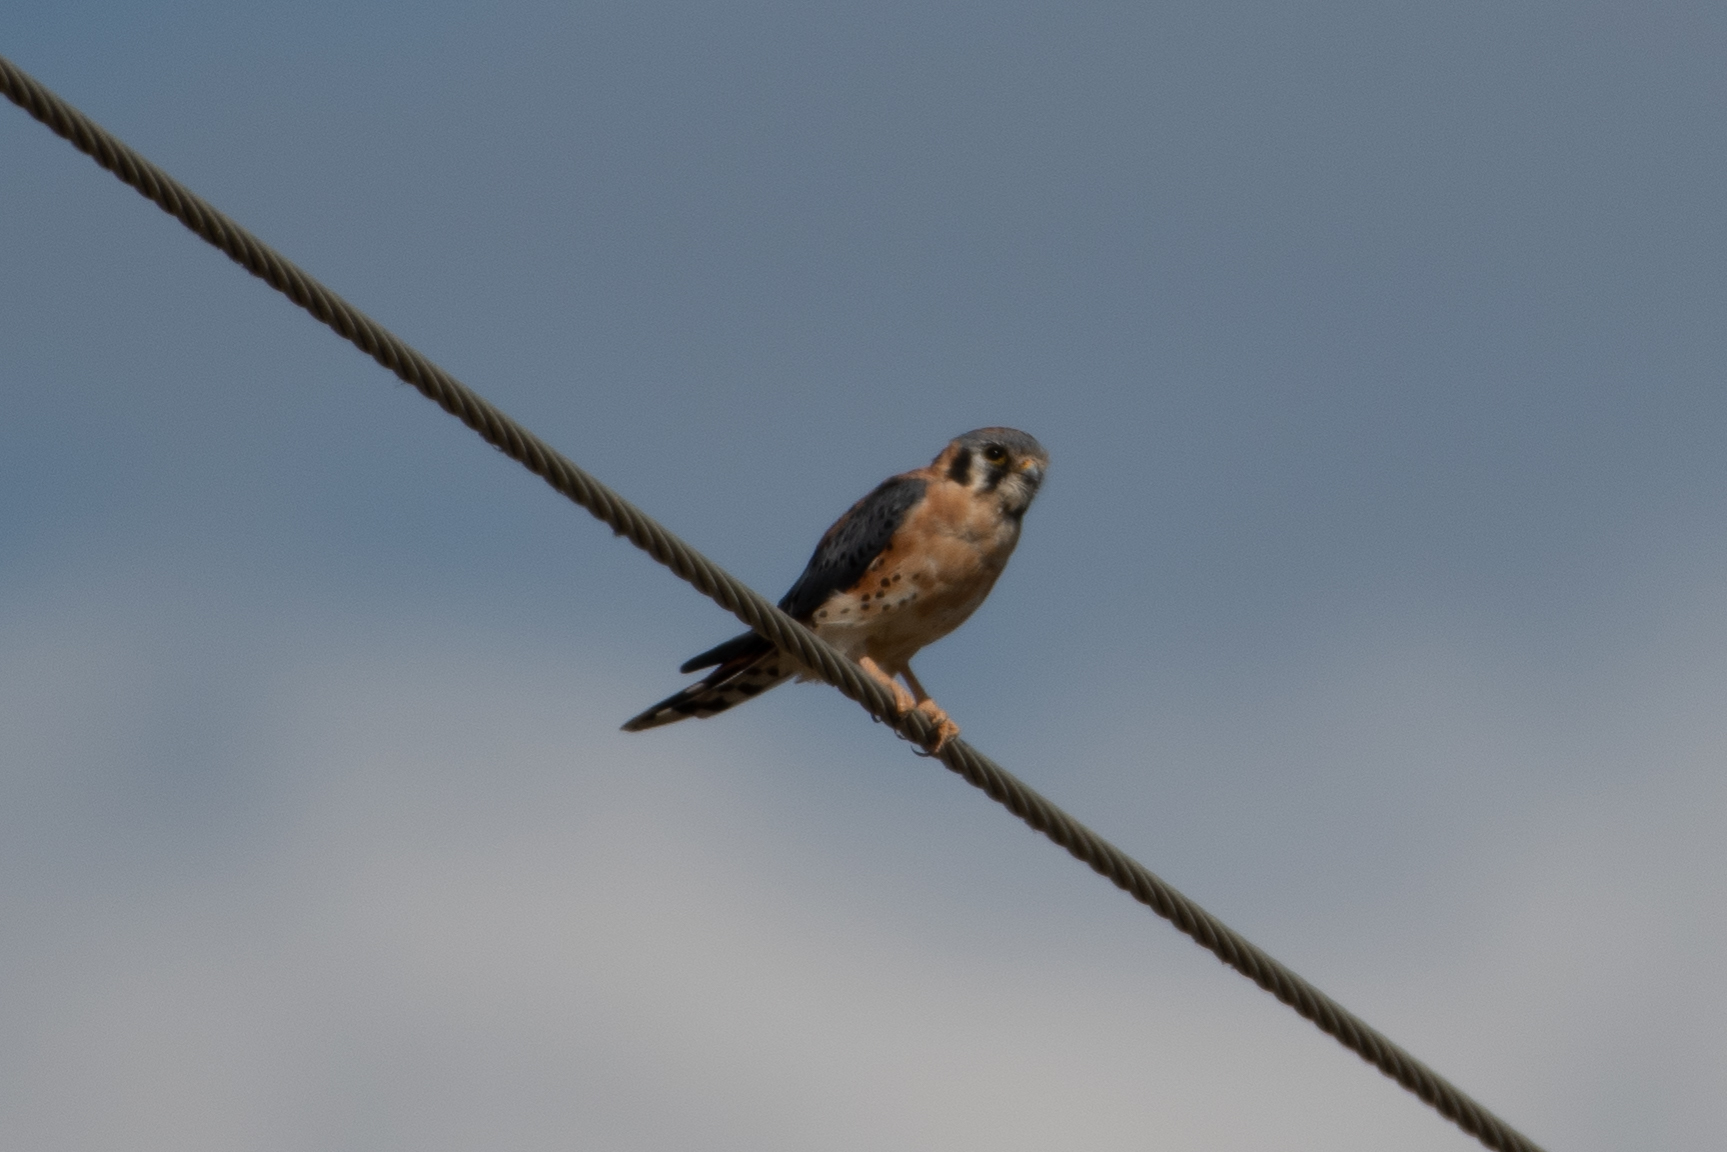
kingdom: Animalia
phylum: Chordata
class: Aves
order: Falconiformes
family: Falconidae
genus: Falco
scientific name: Falco sparverius
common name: American kestrel
